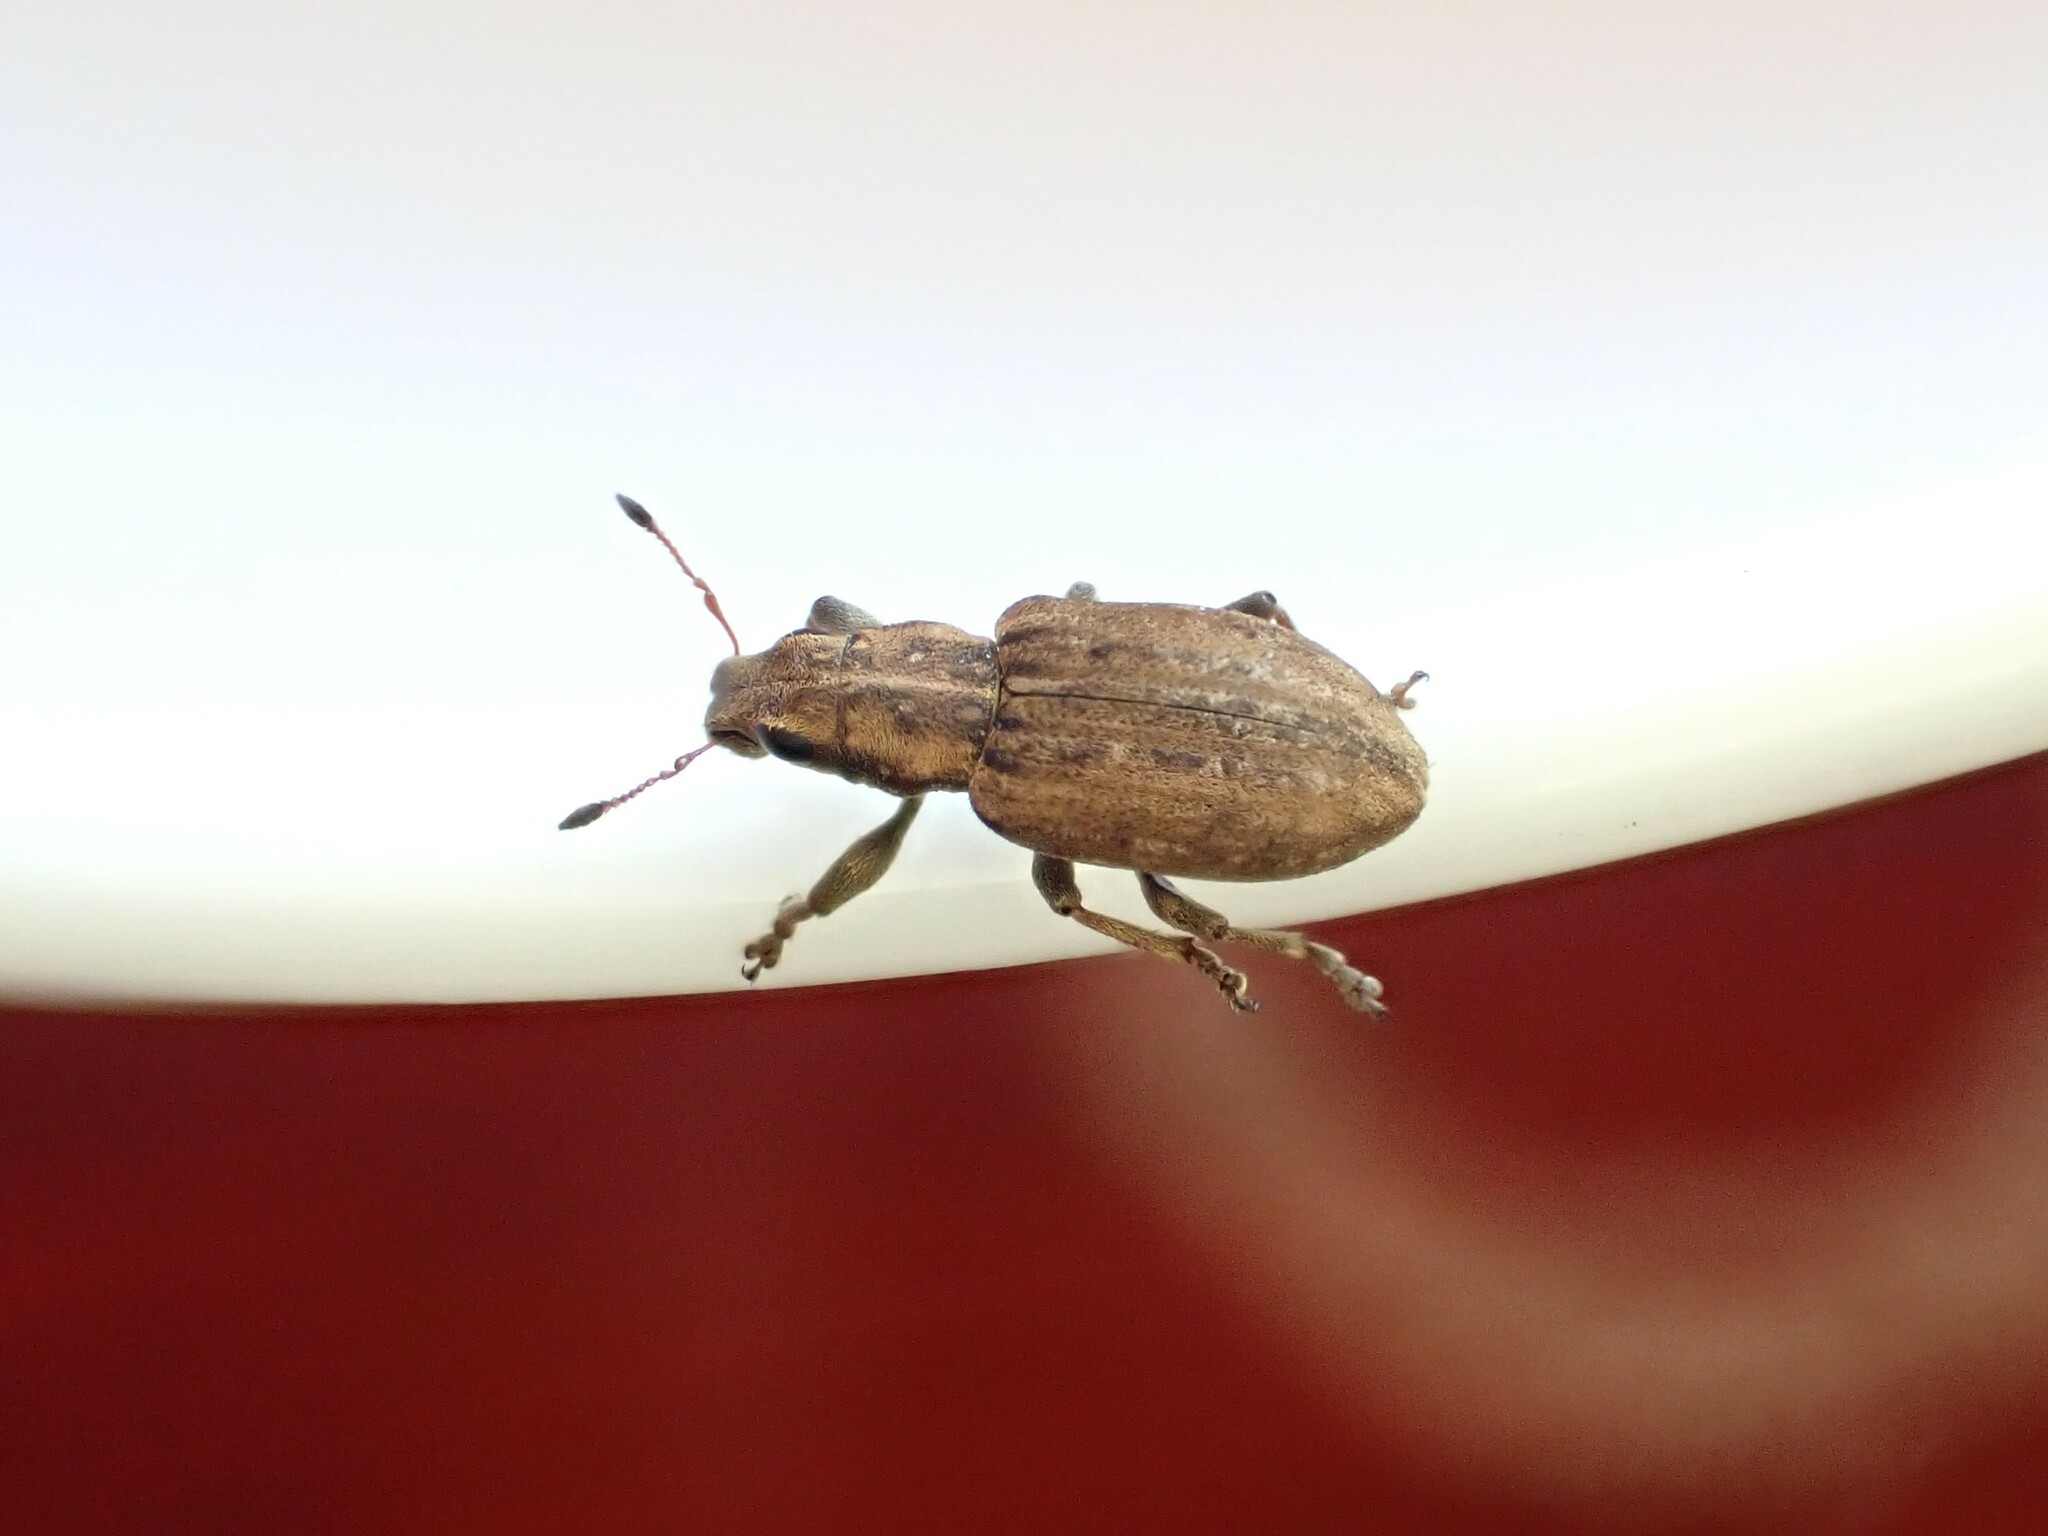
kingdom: Animalia
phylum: Arthropoda
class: Insecta
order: Coleoptera
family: Curculionidae
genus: Sitona
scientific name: Sitona obsoletus
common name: Weevil
